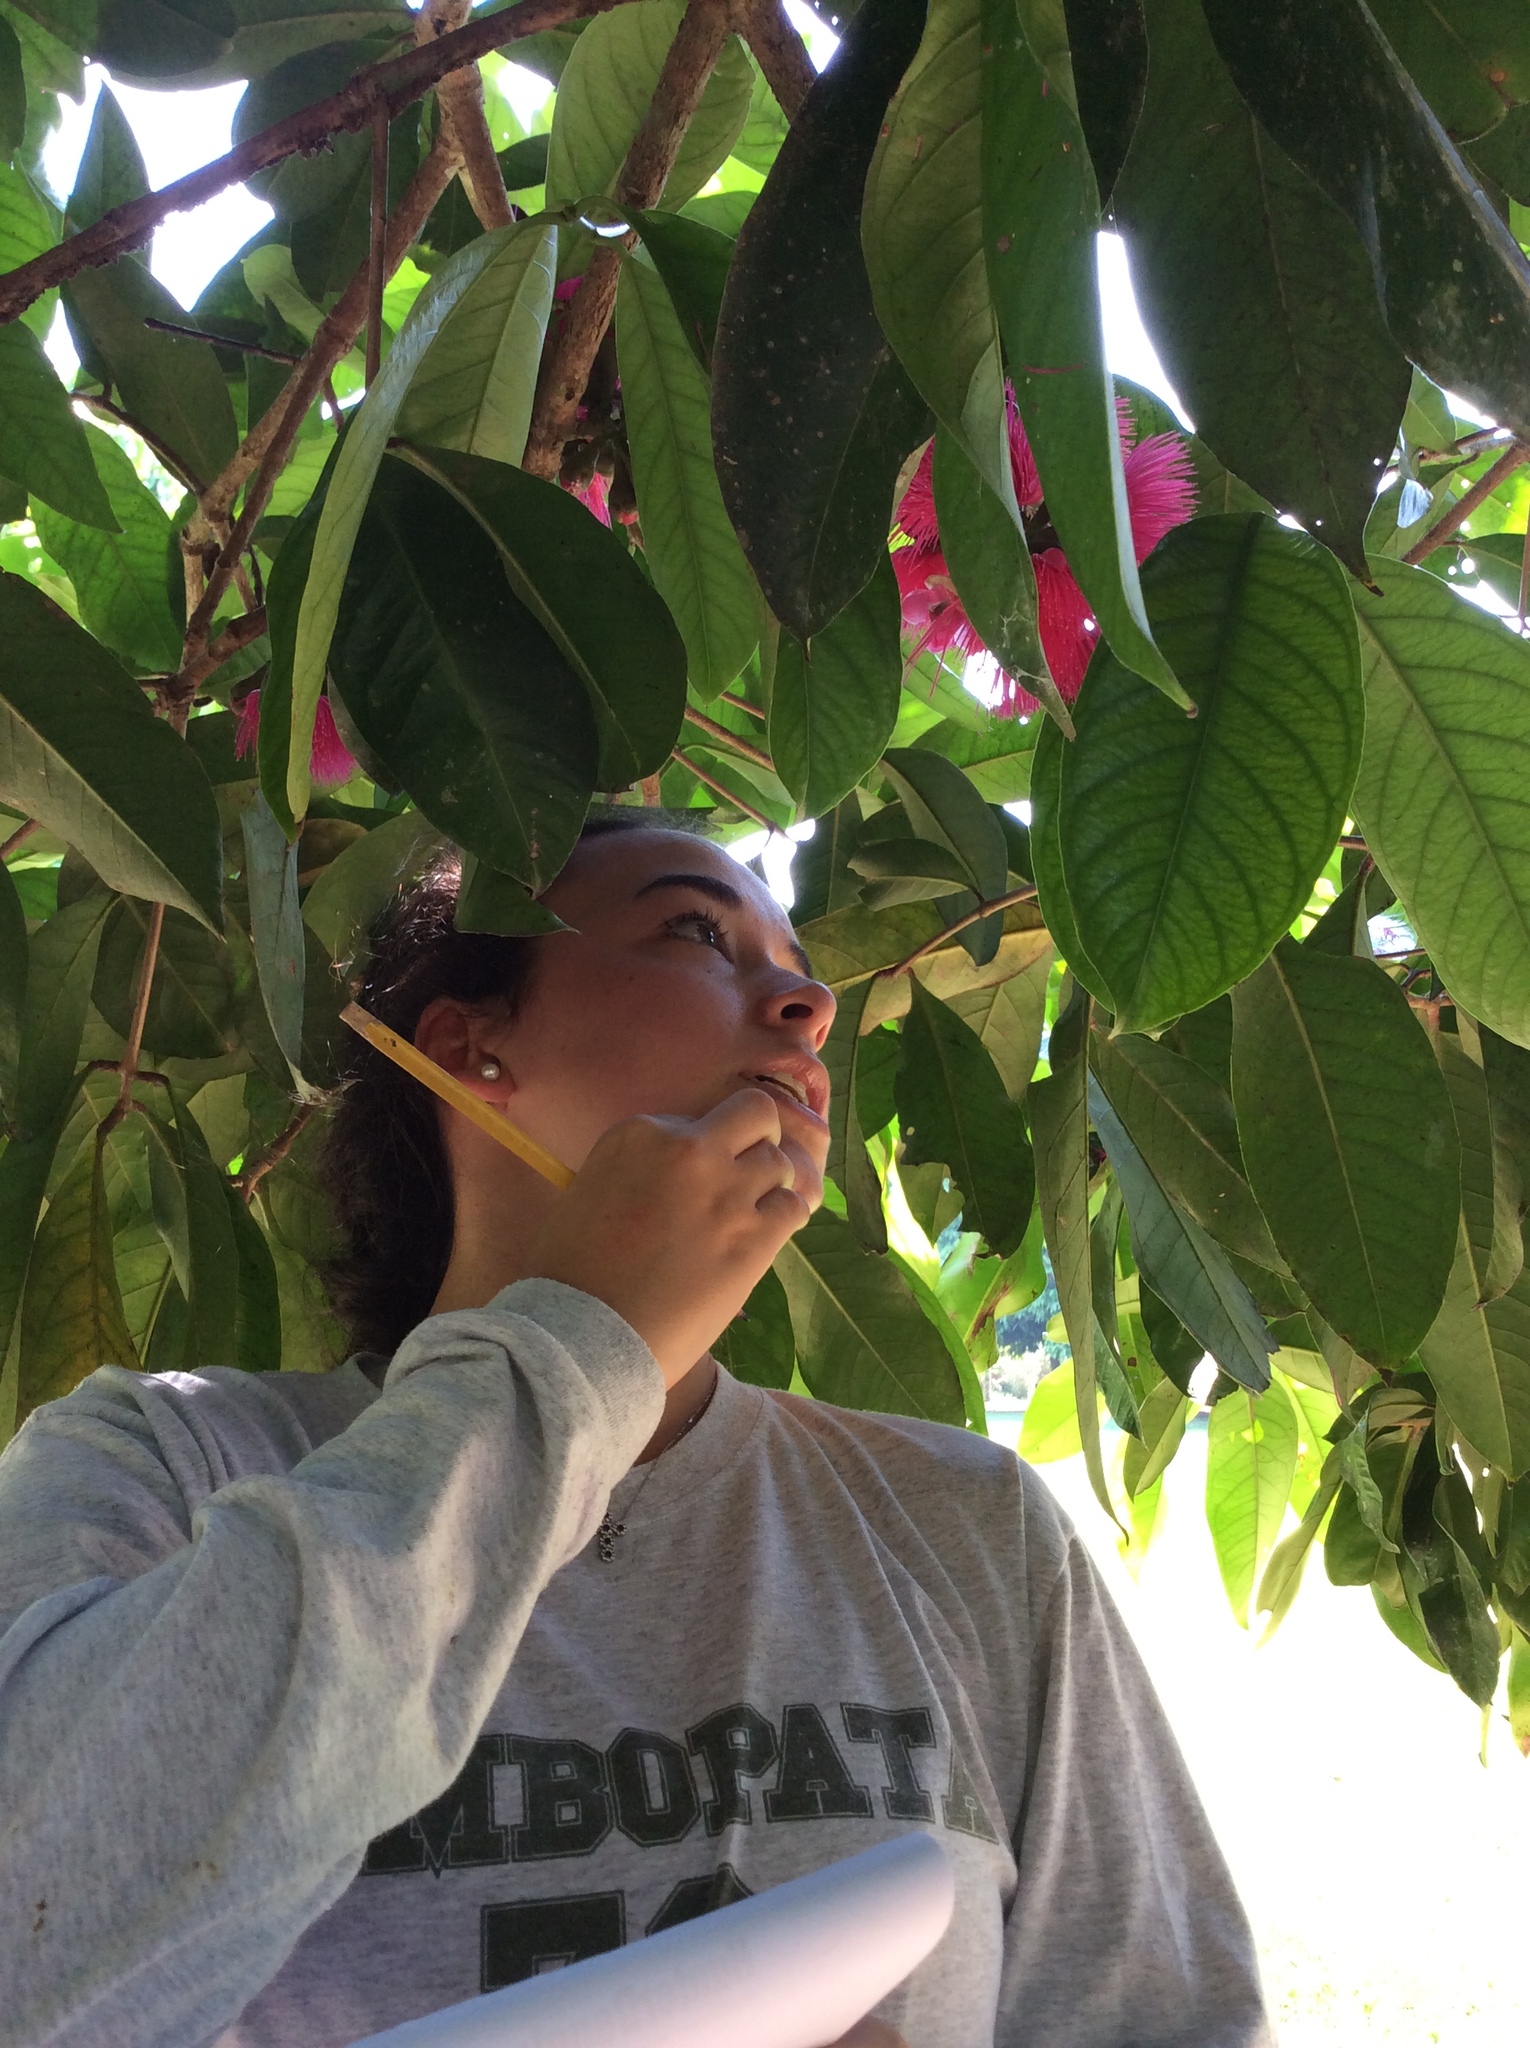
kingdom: Plantae
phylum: Tracheophyta
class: Magnoliopsida
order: Myrtales
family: Myrtaceae
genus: Syzygium
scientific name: Syzygium malaccense
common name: Malaysian apple
